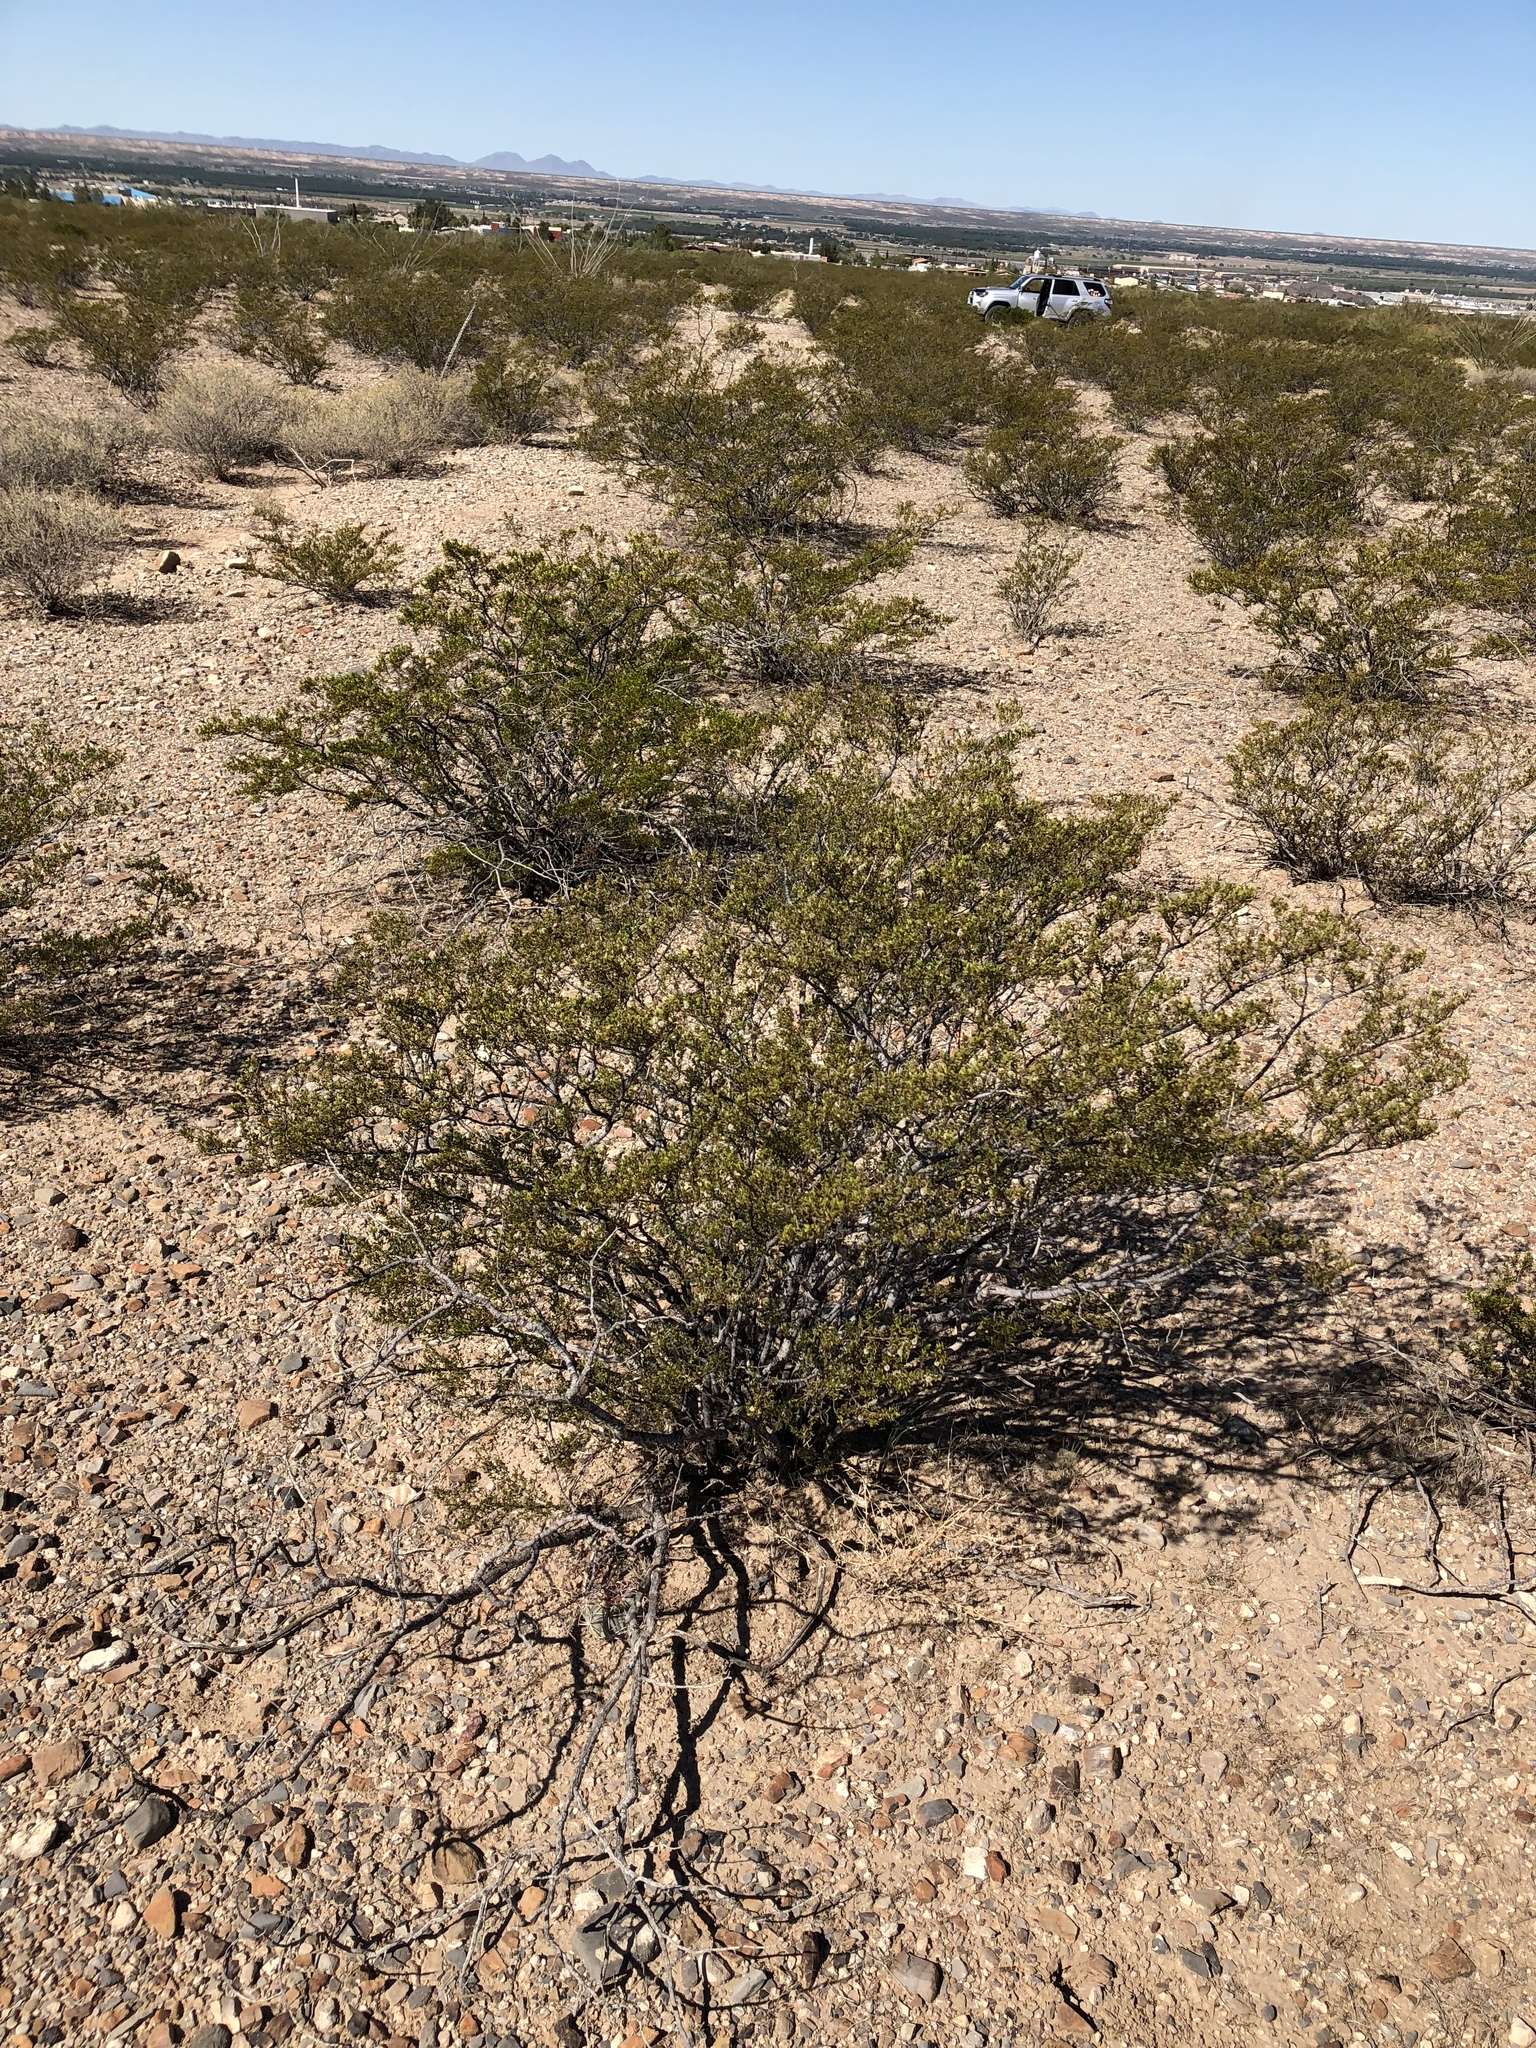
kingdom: Plantae
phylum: Tracheophyta
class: Magnoliopsida
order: Zygophyllales
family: Zygophyllaceae
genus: Larrea
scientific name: Larrea tridentata
